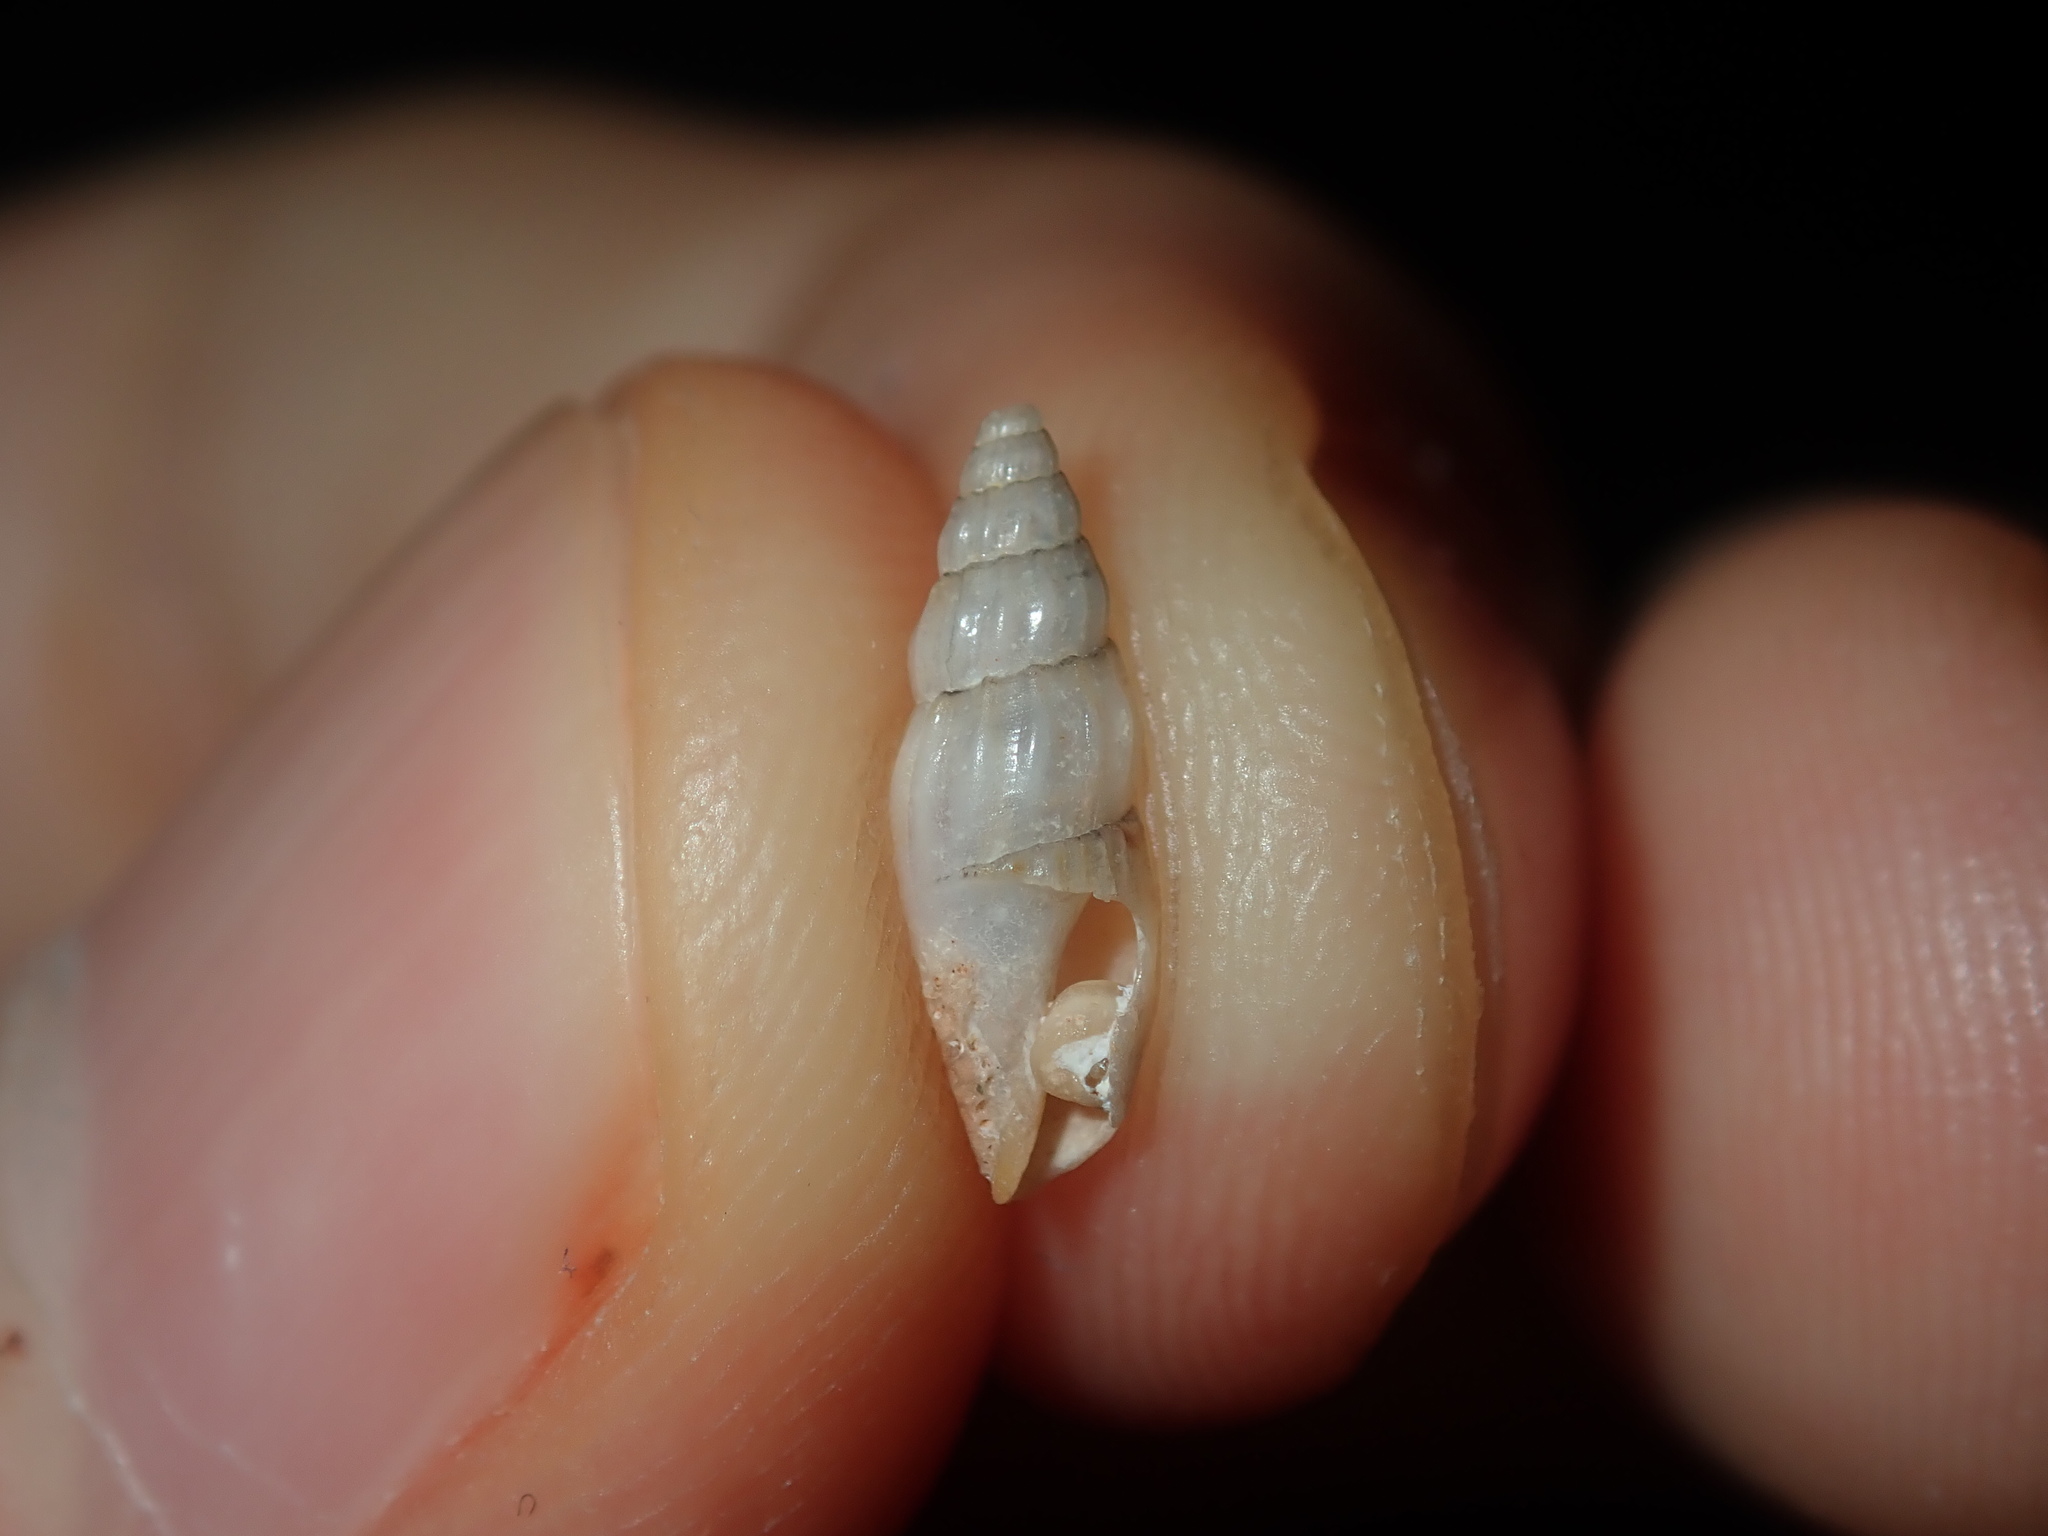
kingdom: Animalia
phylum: Mollusca
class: Gastropoda
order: Neogastropoda
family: Mangeliidae
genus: Mitraguraleus
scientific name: Mitraguraleus mitralis
